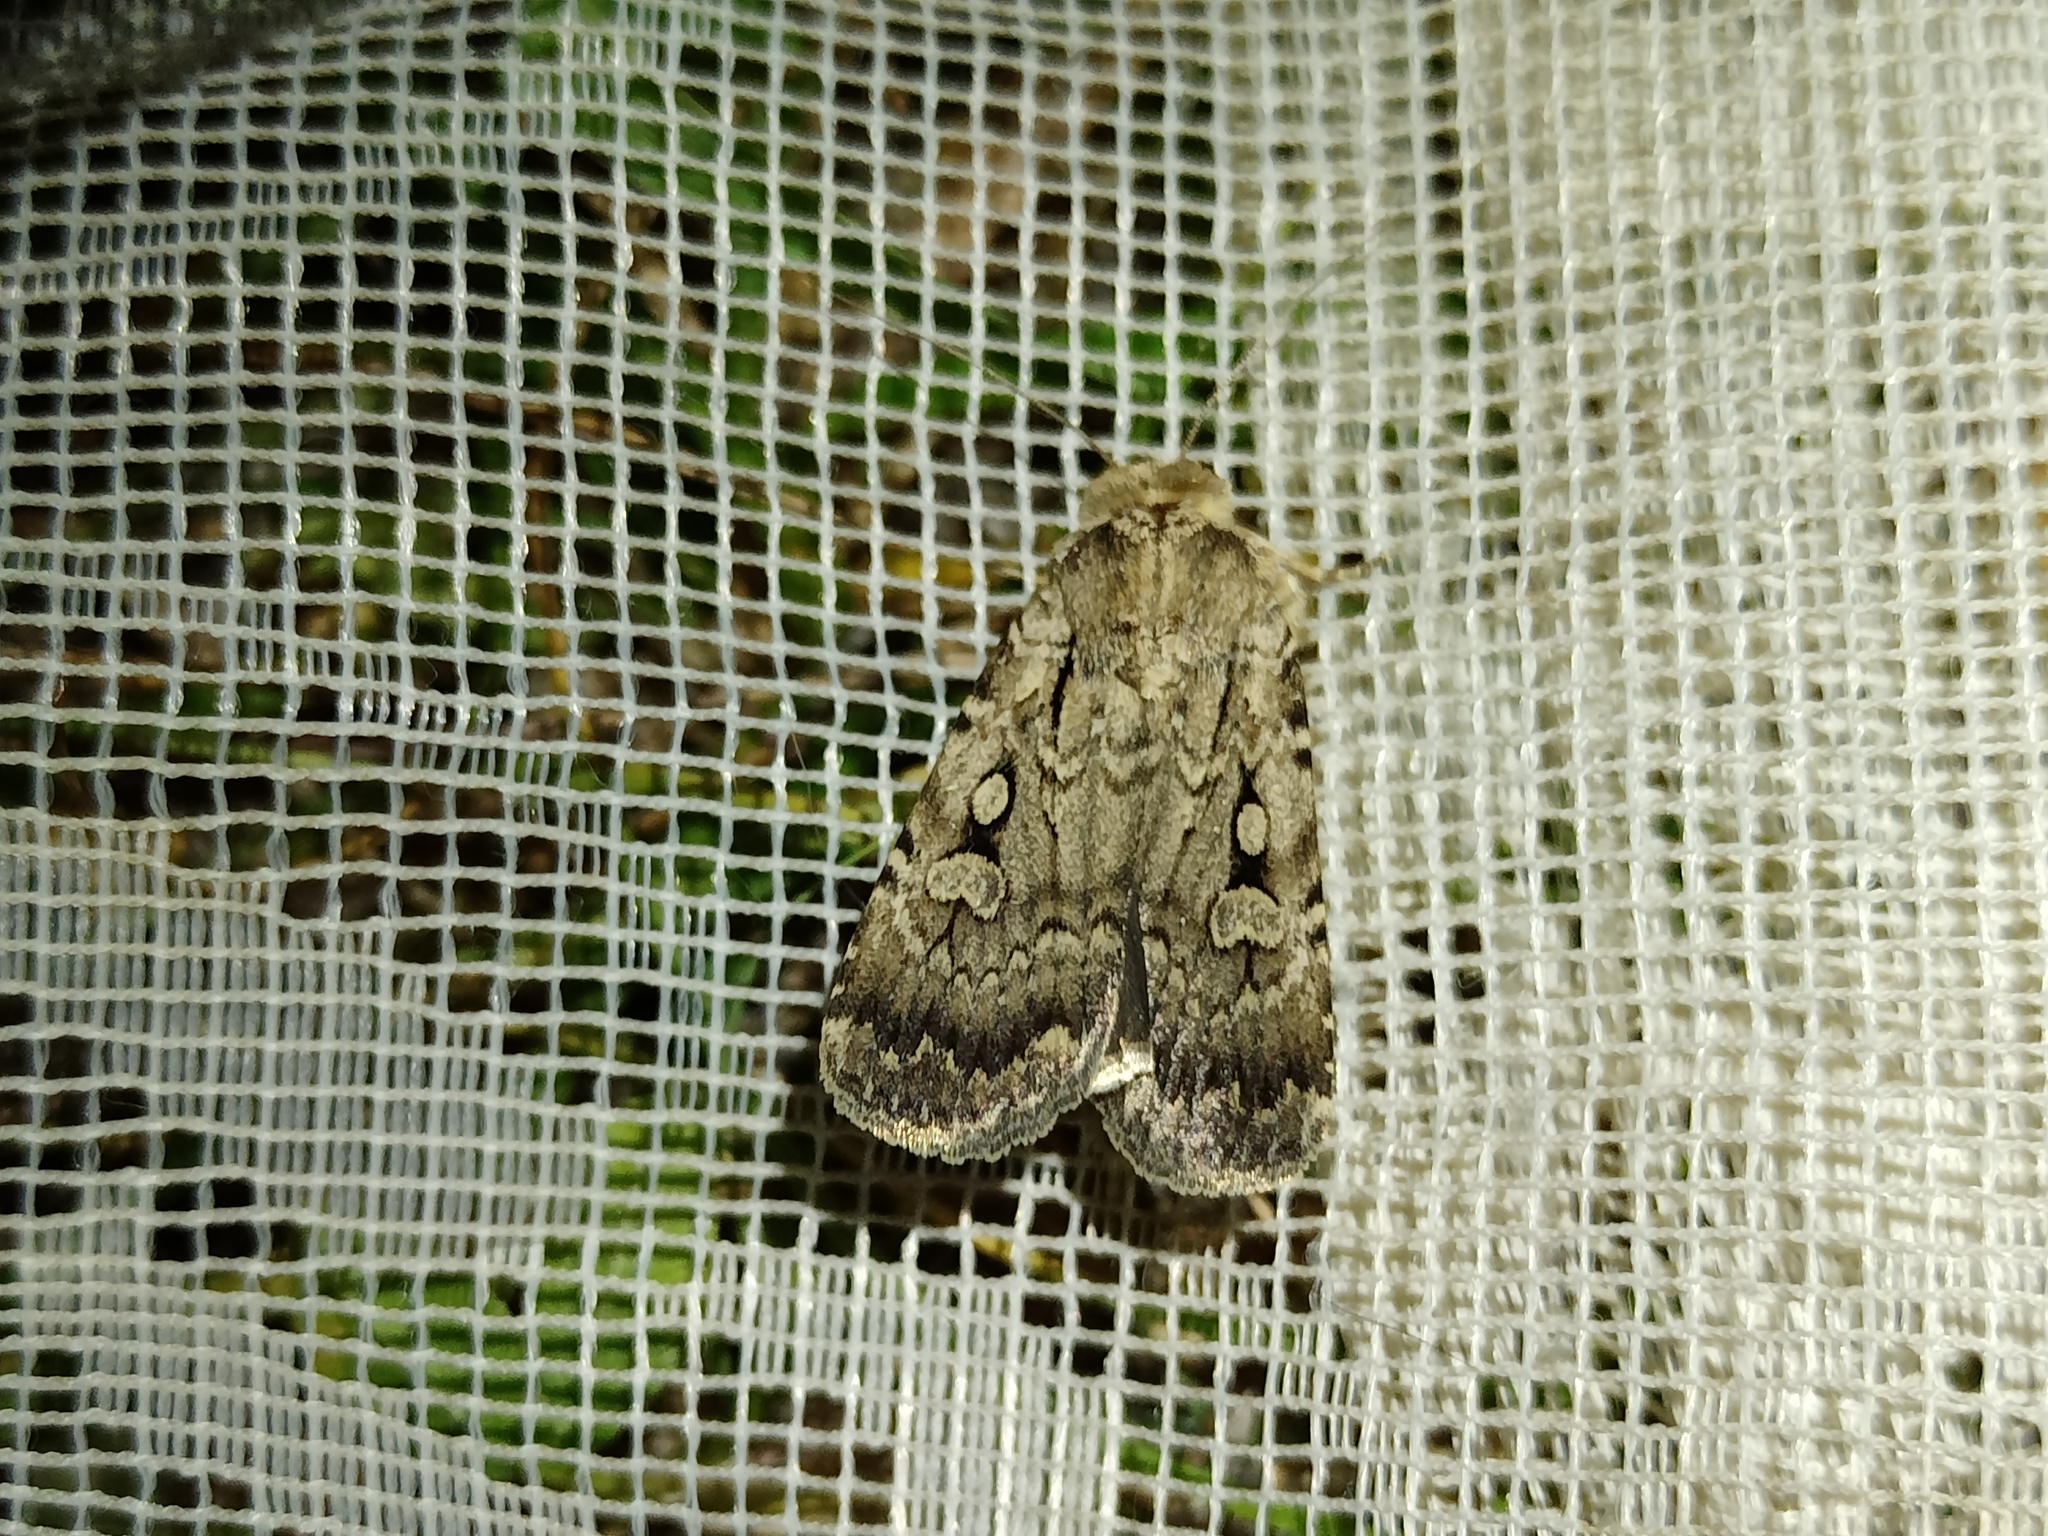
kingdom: Animalia
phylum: Arthropoda
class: Insecta
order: Lepidoptera
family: Noctuidae
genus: Spaelotis
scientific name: Spaelotis senna
